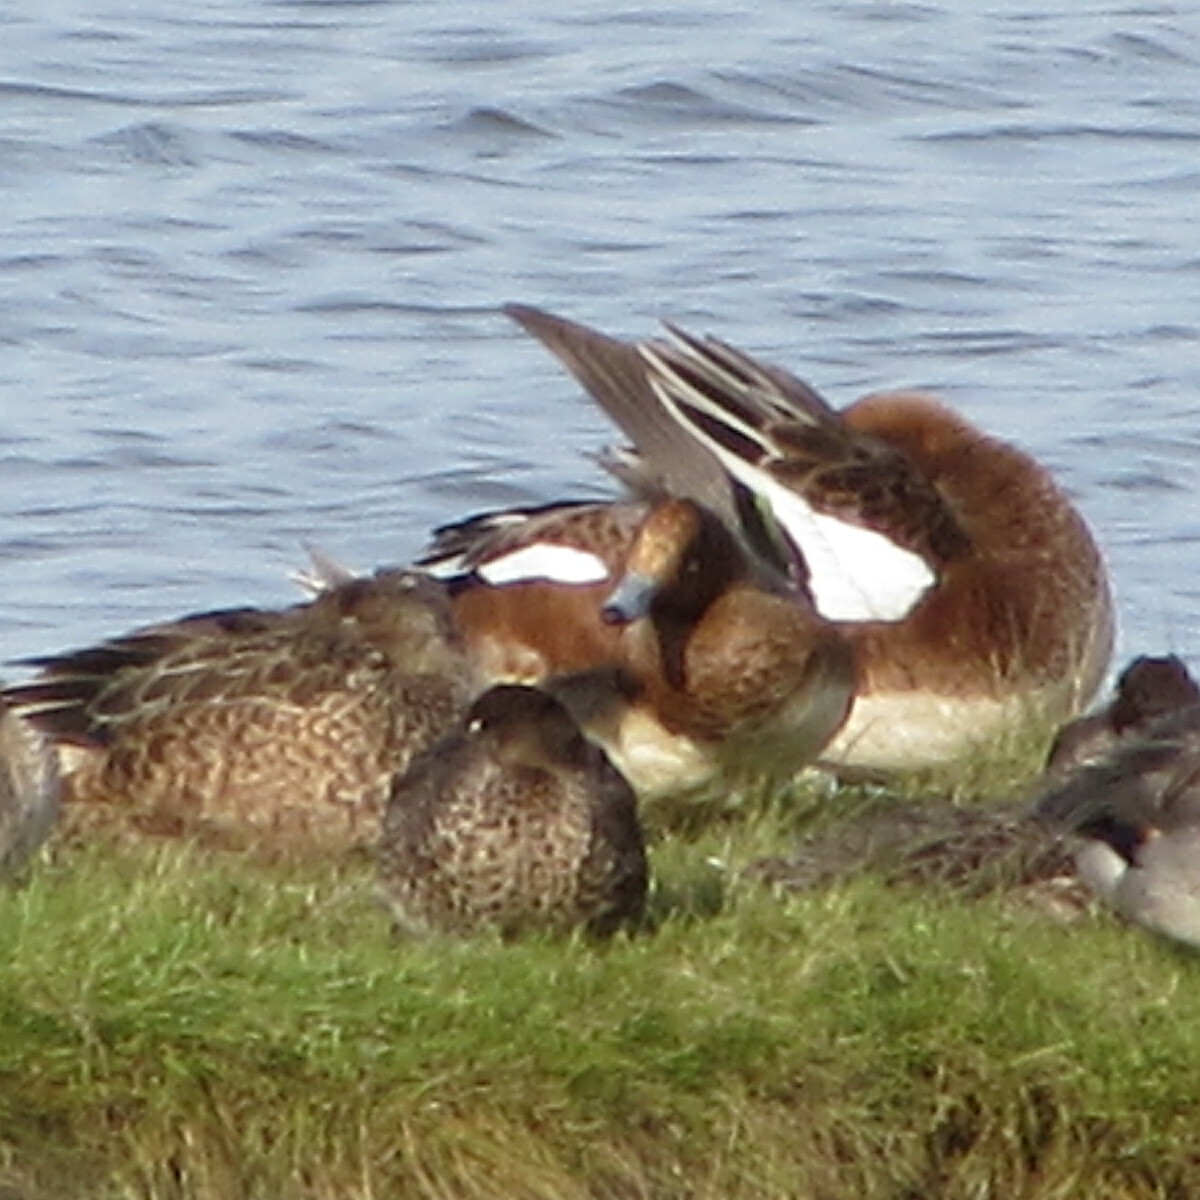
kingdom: Animalia
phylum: Chordata
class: Aves
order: Anseriformes
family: Anatidae
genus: Mareca
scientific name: Mareca penelope
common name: Eurasian wigeon
